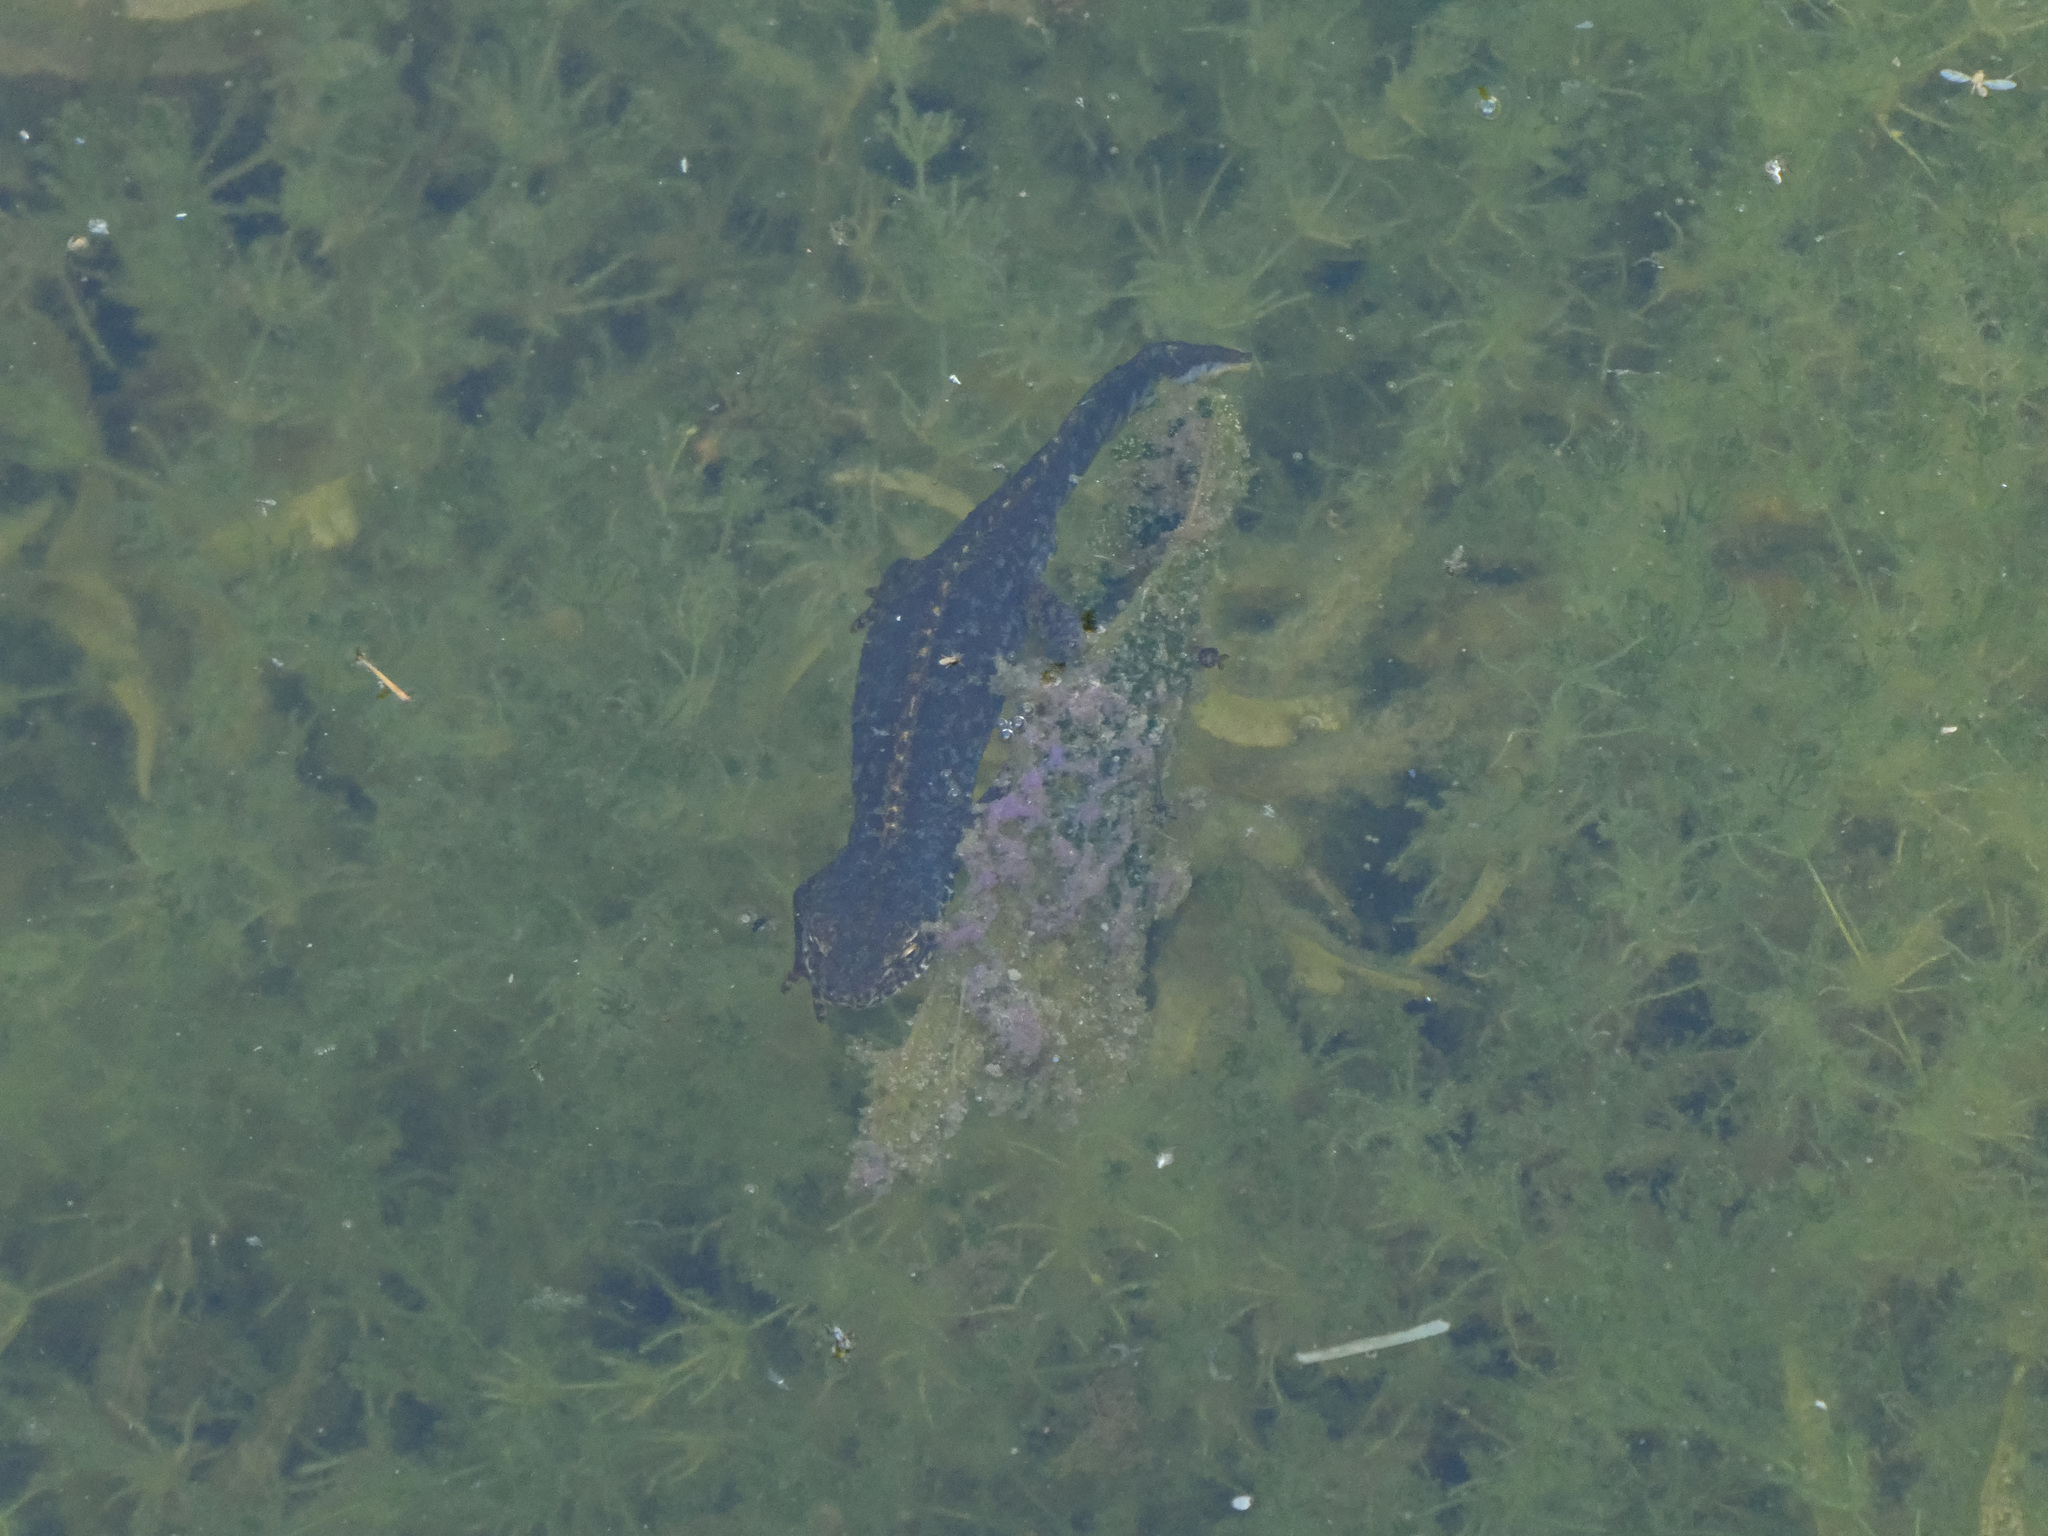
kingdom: Animalia
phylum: Chordata
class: Amphibia
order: Caudata
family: Salamandridae
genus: Ichthyosaura
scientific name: Ichthyosaura alpestris
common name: Alpine newt
